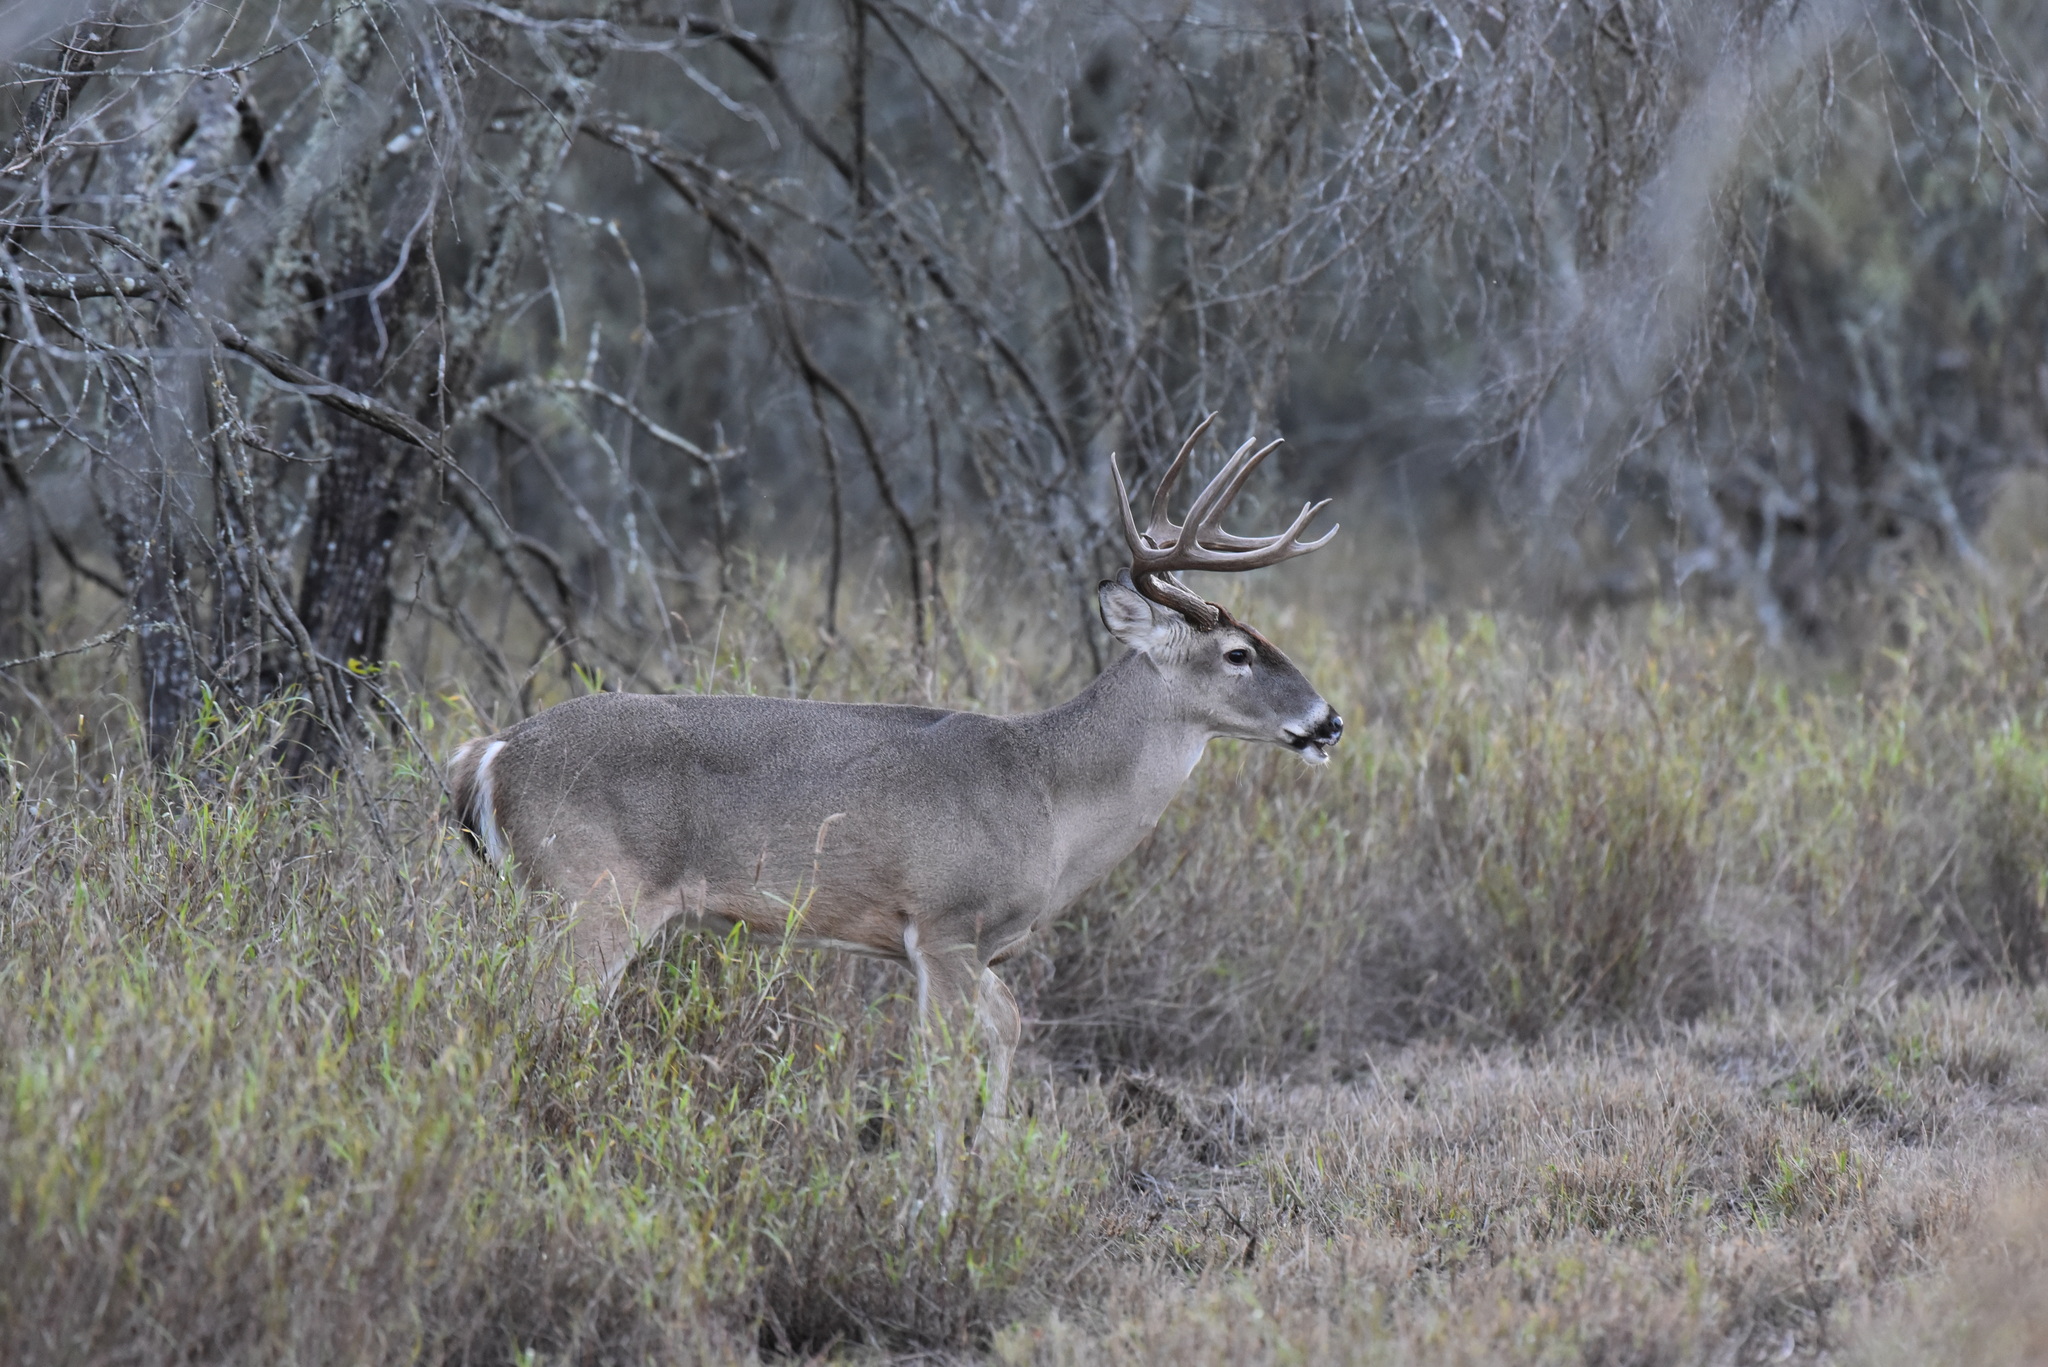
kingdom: Animalia
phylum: Chordata
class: Mammalia
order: Artiodactyla
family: Cervidae
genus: Odocoileus
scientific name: Odocoileus virginianus
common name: White-tailed deer
